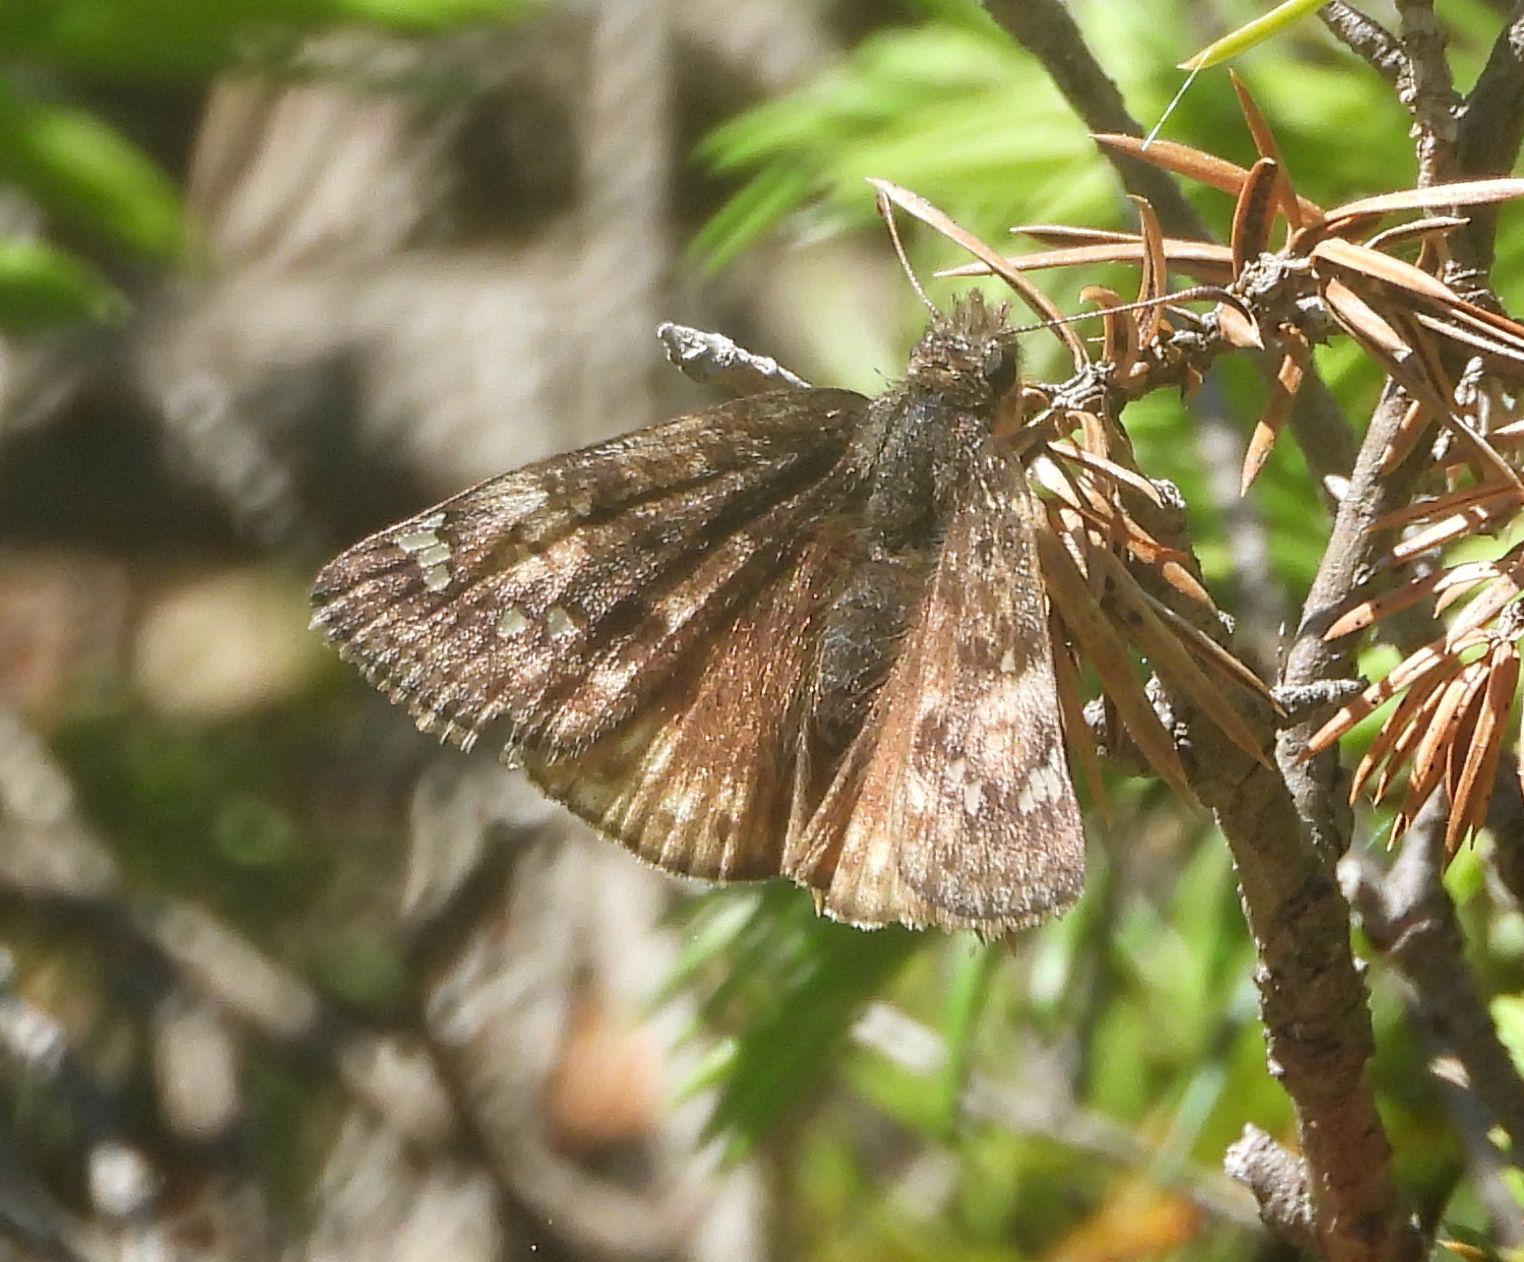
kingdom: Animalia
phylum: Arthropoda
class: Insecta
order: Lepidoptera
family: Hesperiidae
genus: Erynnis
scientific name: Erynnis juvenalis
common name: Juvenal's duskywing
